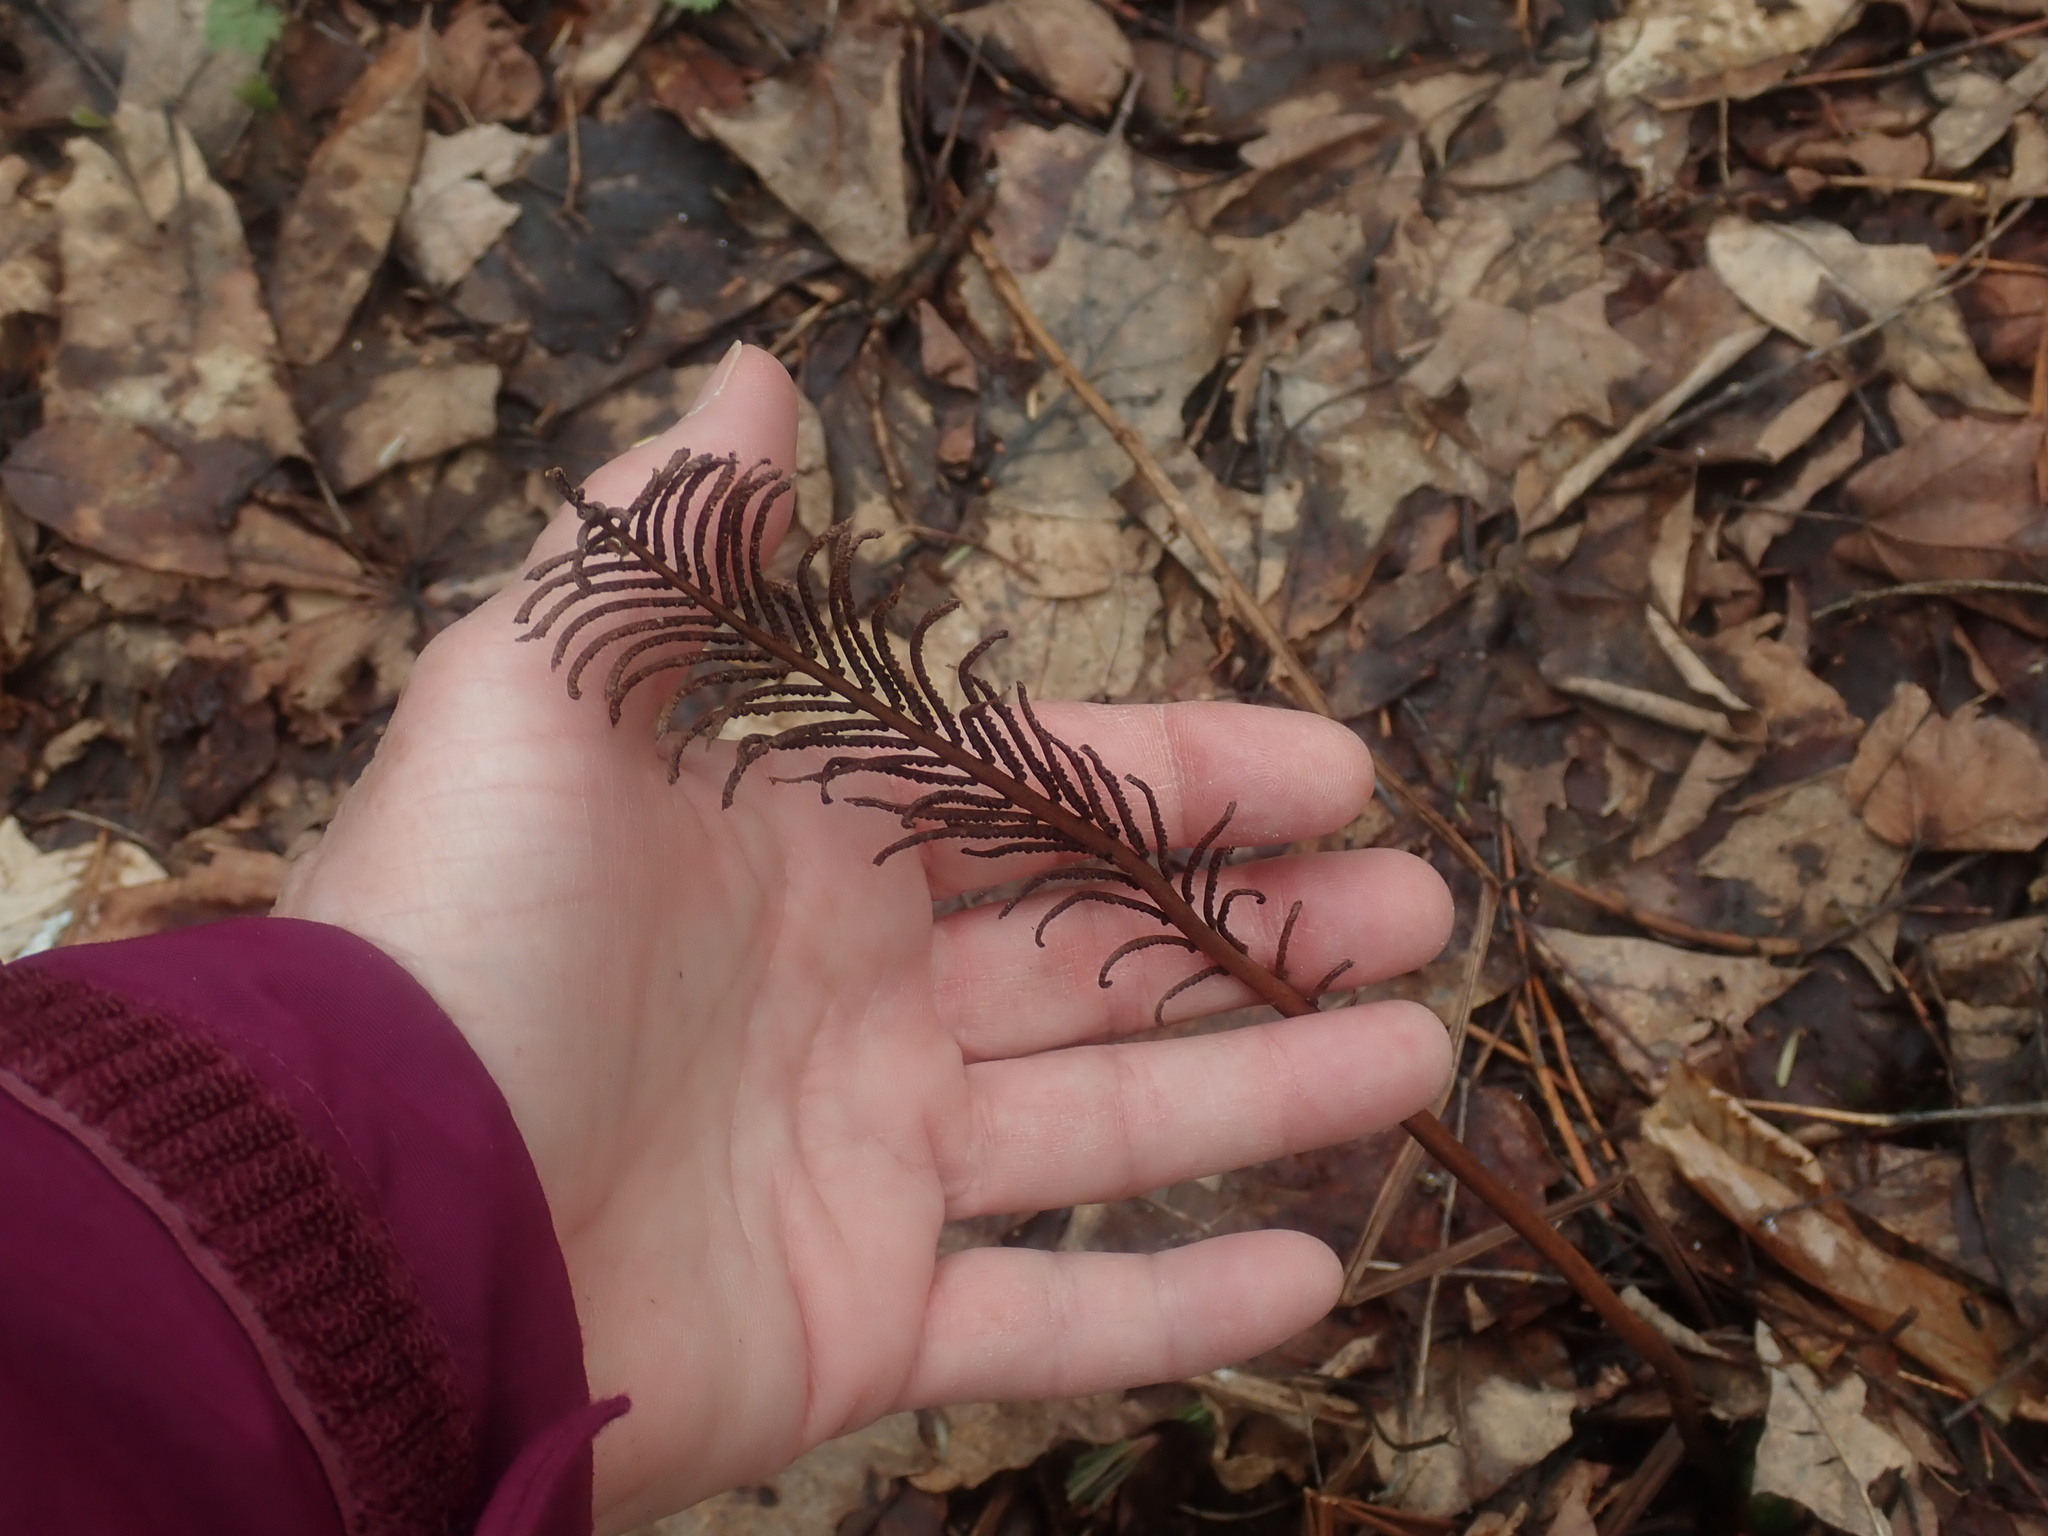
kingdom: Plantae
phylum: Tracheophyta
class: Polypodiopsida
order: Polypodiales
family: Onocleaceae
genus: Matteuccia
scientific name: Matteuccia struthiopteris
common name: Ostrich fern
